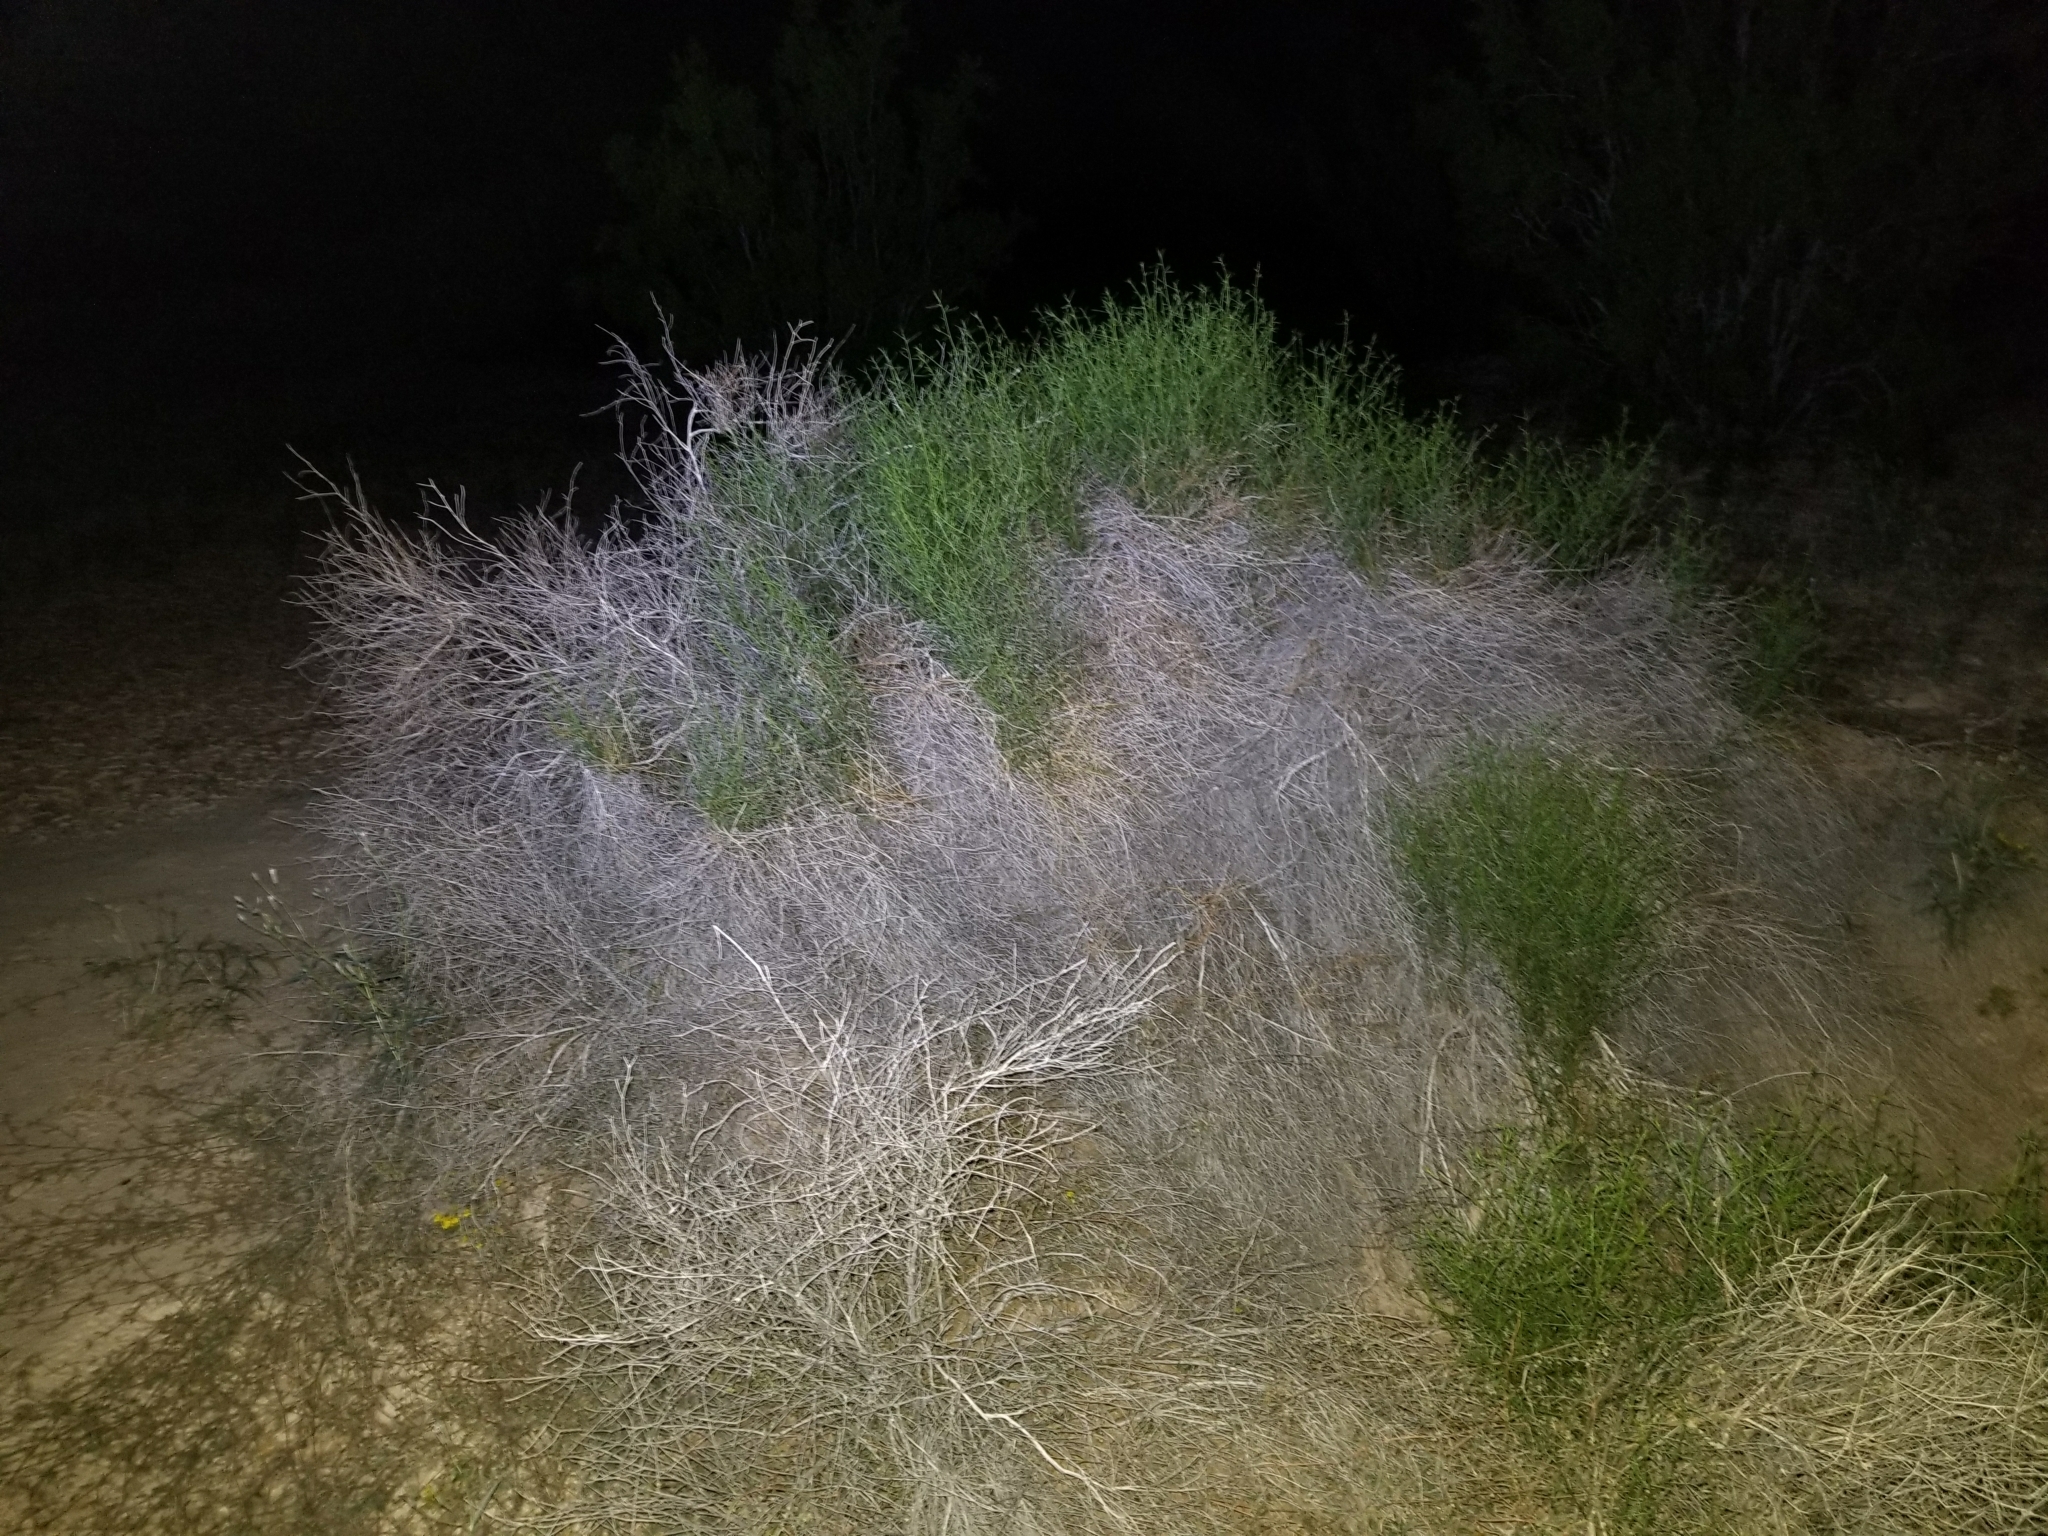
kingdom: Plantae
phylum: Tracheophyta
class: Magnoliopsida
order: Asterales
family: Asteraceae
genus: Ambrosia
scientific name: Ambrosia salsola
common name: Burrobrush
